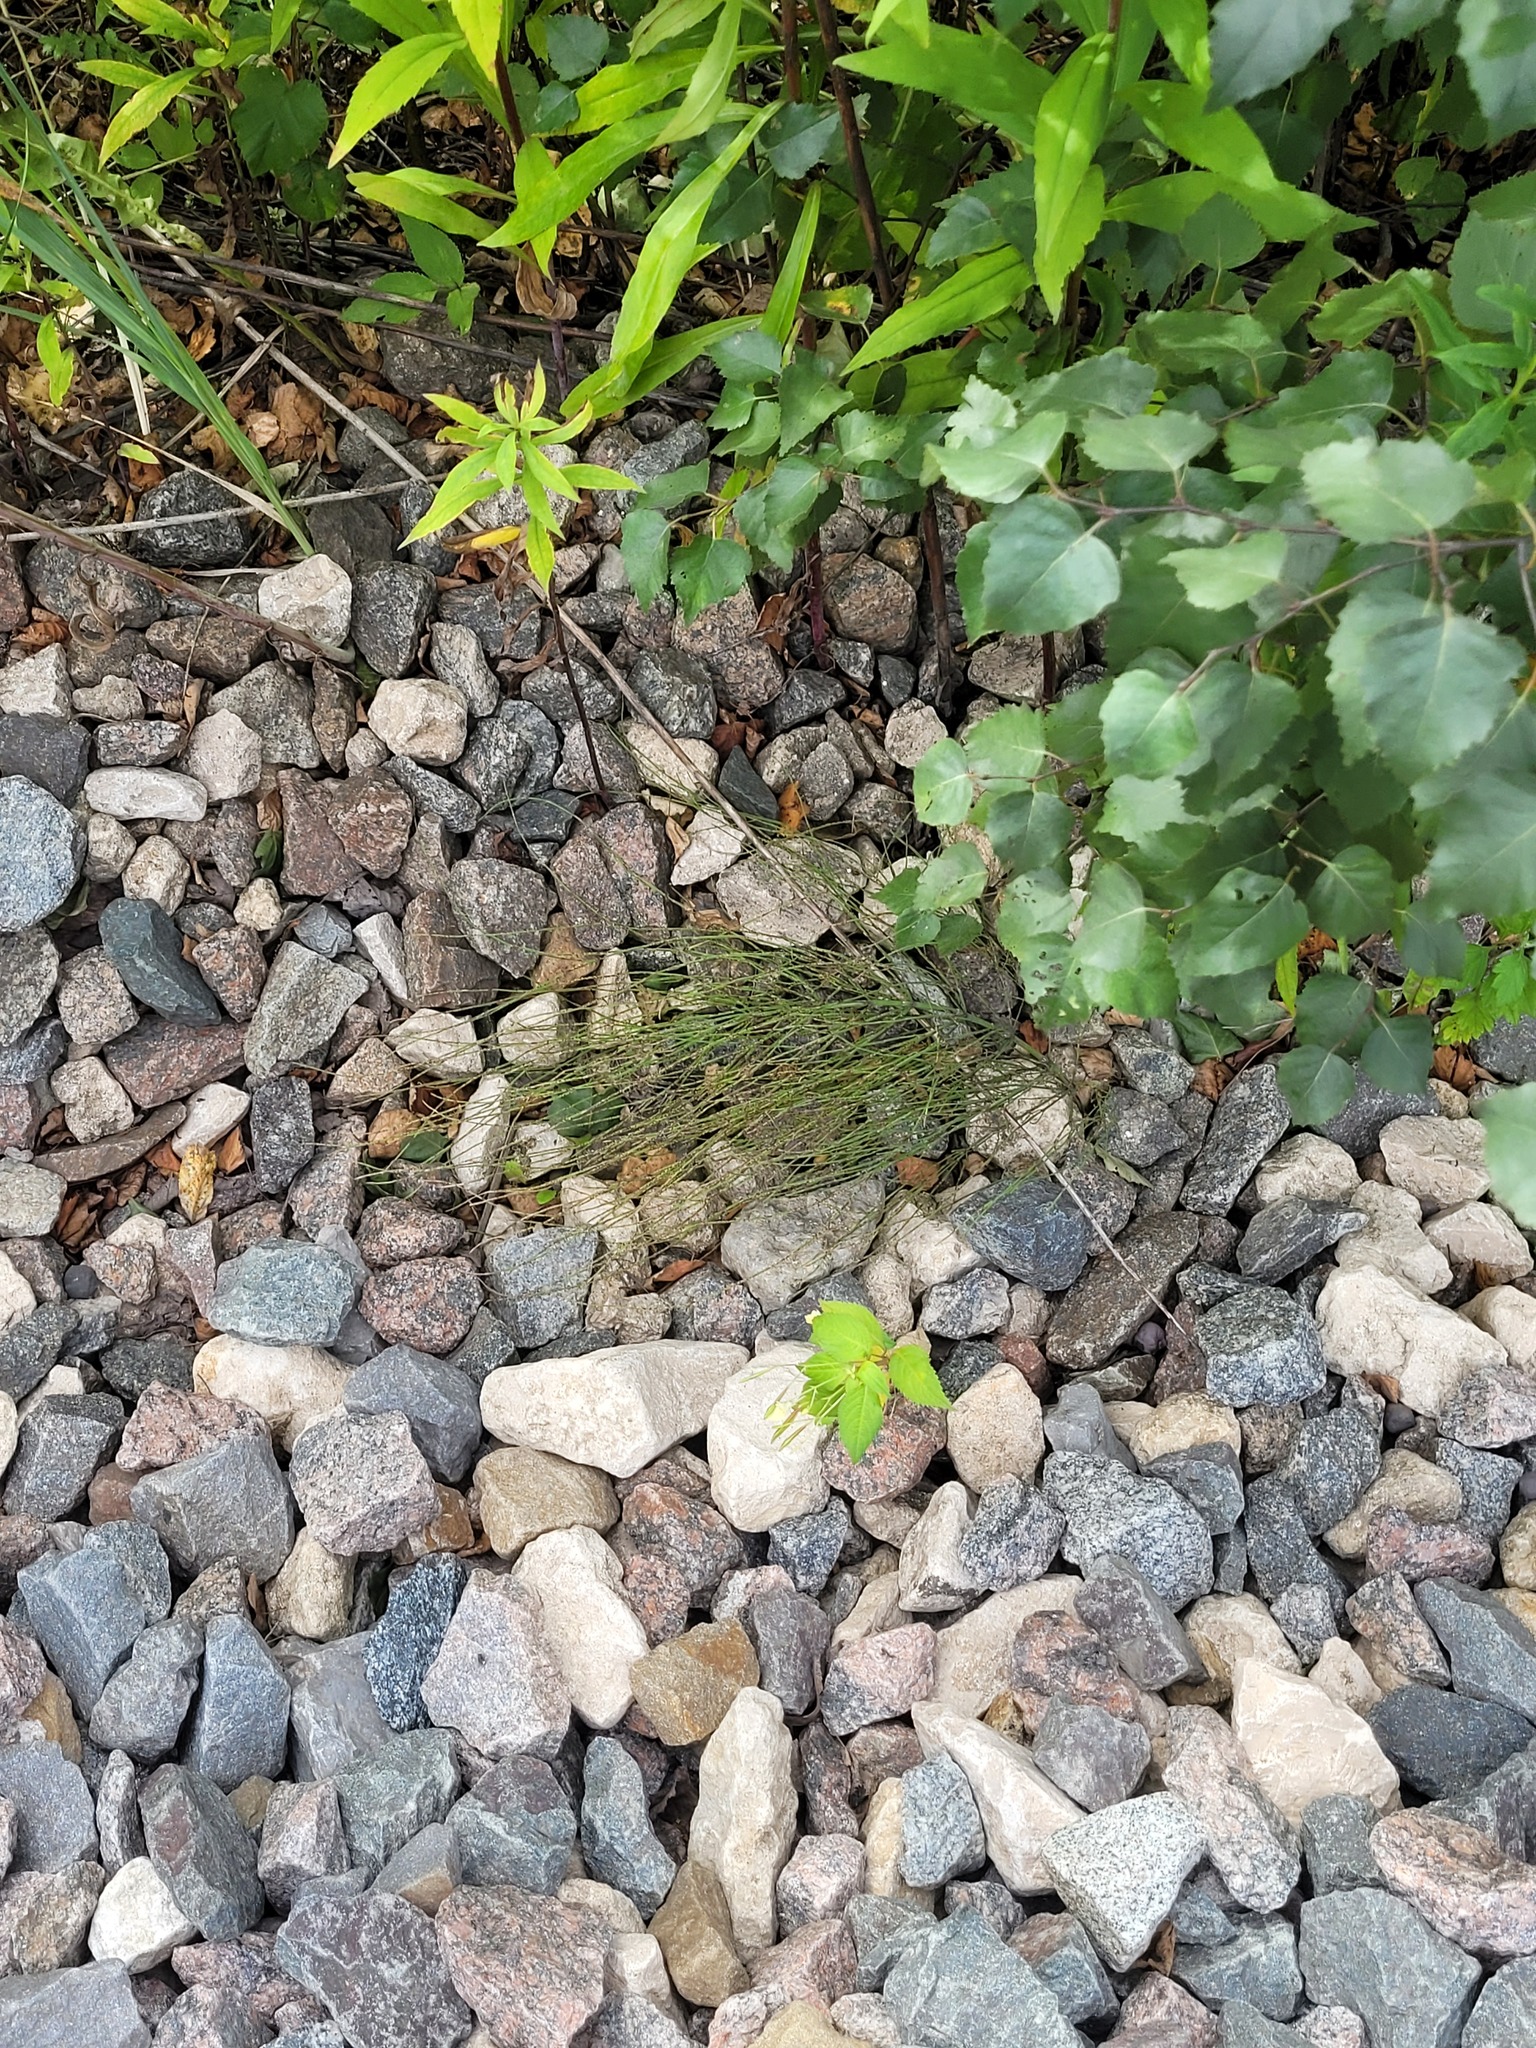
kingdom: Plantae
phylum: Tracheophyta
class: Polypodiopsida
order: Equisetales
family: Equisetaceae
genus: Equisetum
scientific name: Equisetum arvense
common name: Field horsetail
